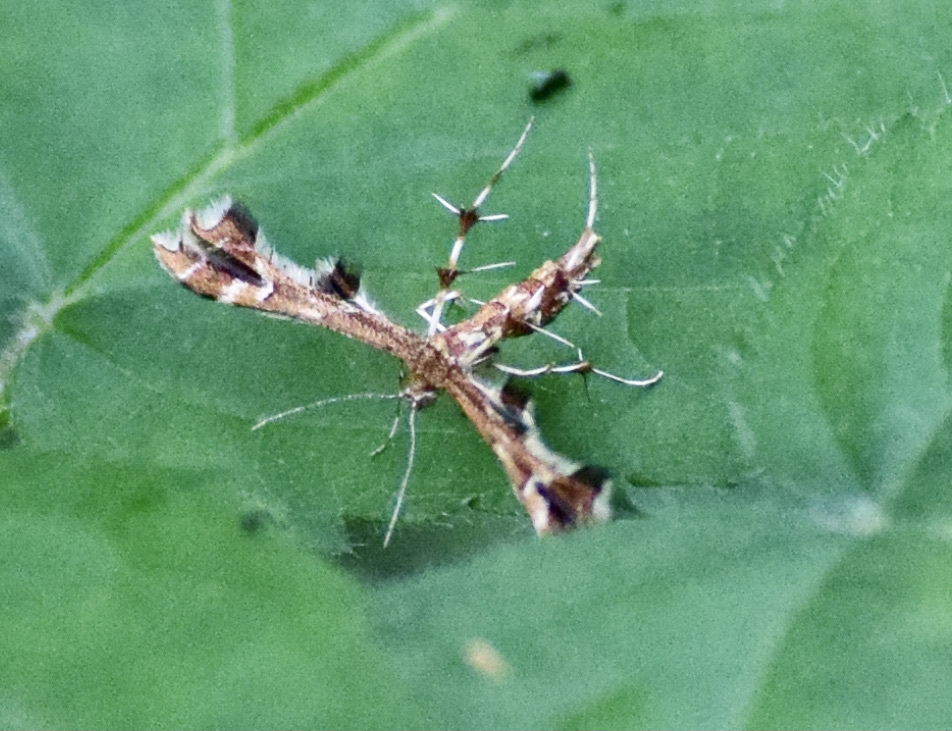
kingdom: Animalia
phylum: Arthropoda
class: Insecta
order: Lepidoptera
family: Pterophoridae
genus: Geina
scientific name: Geina
